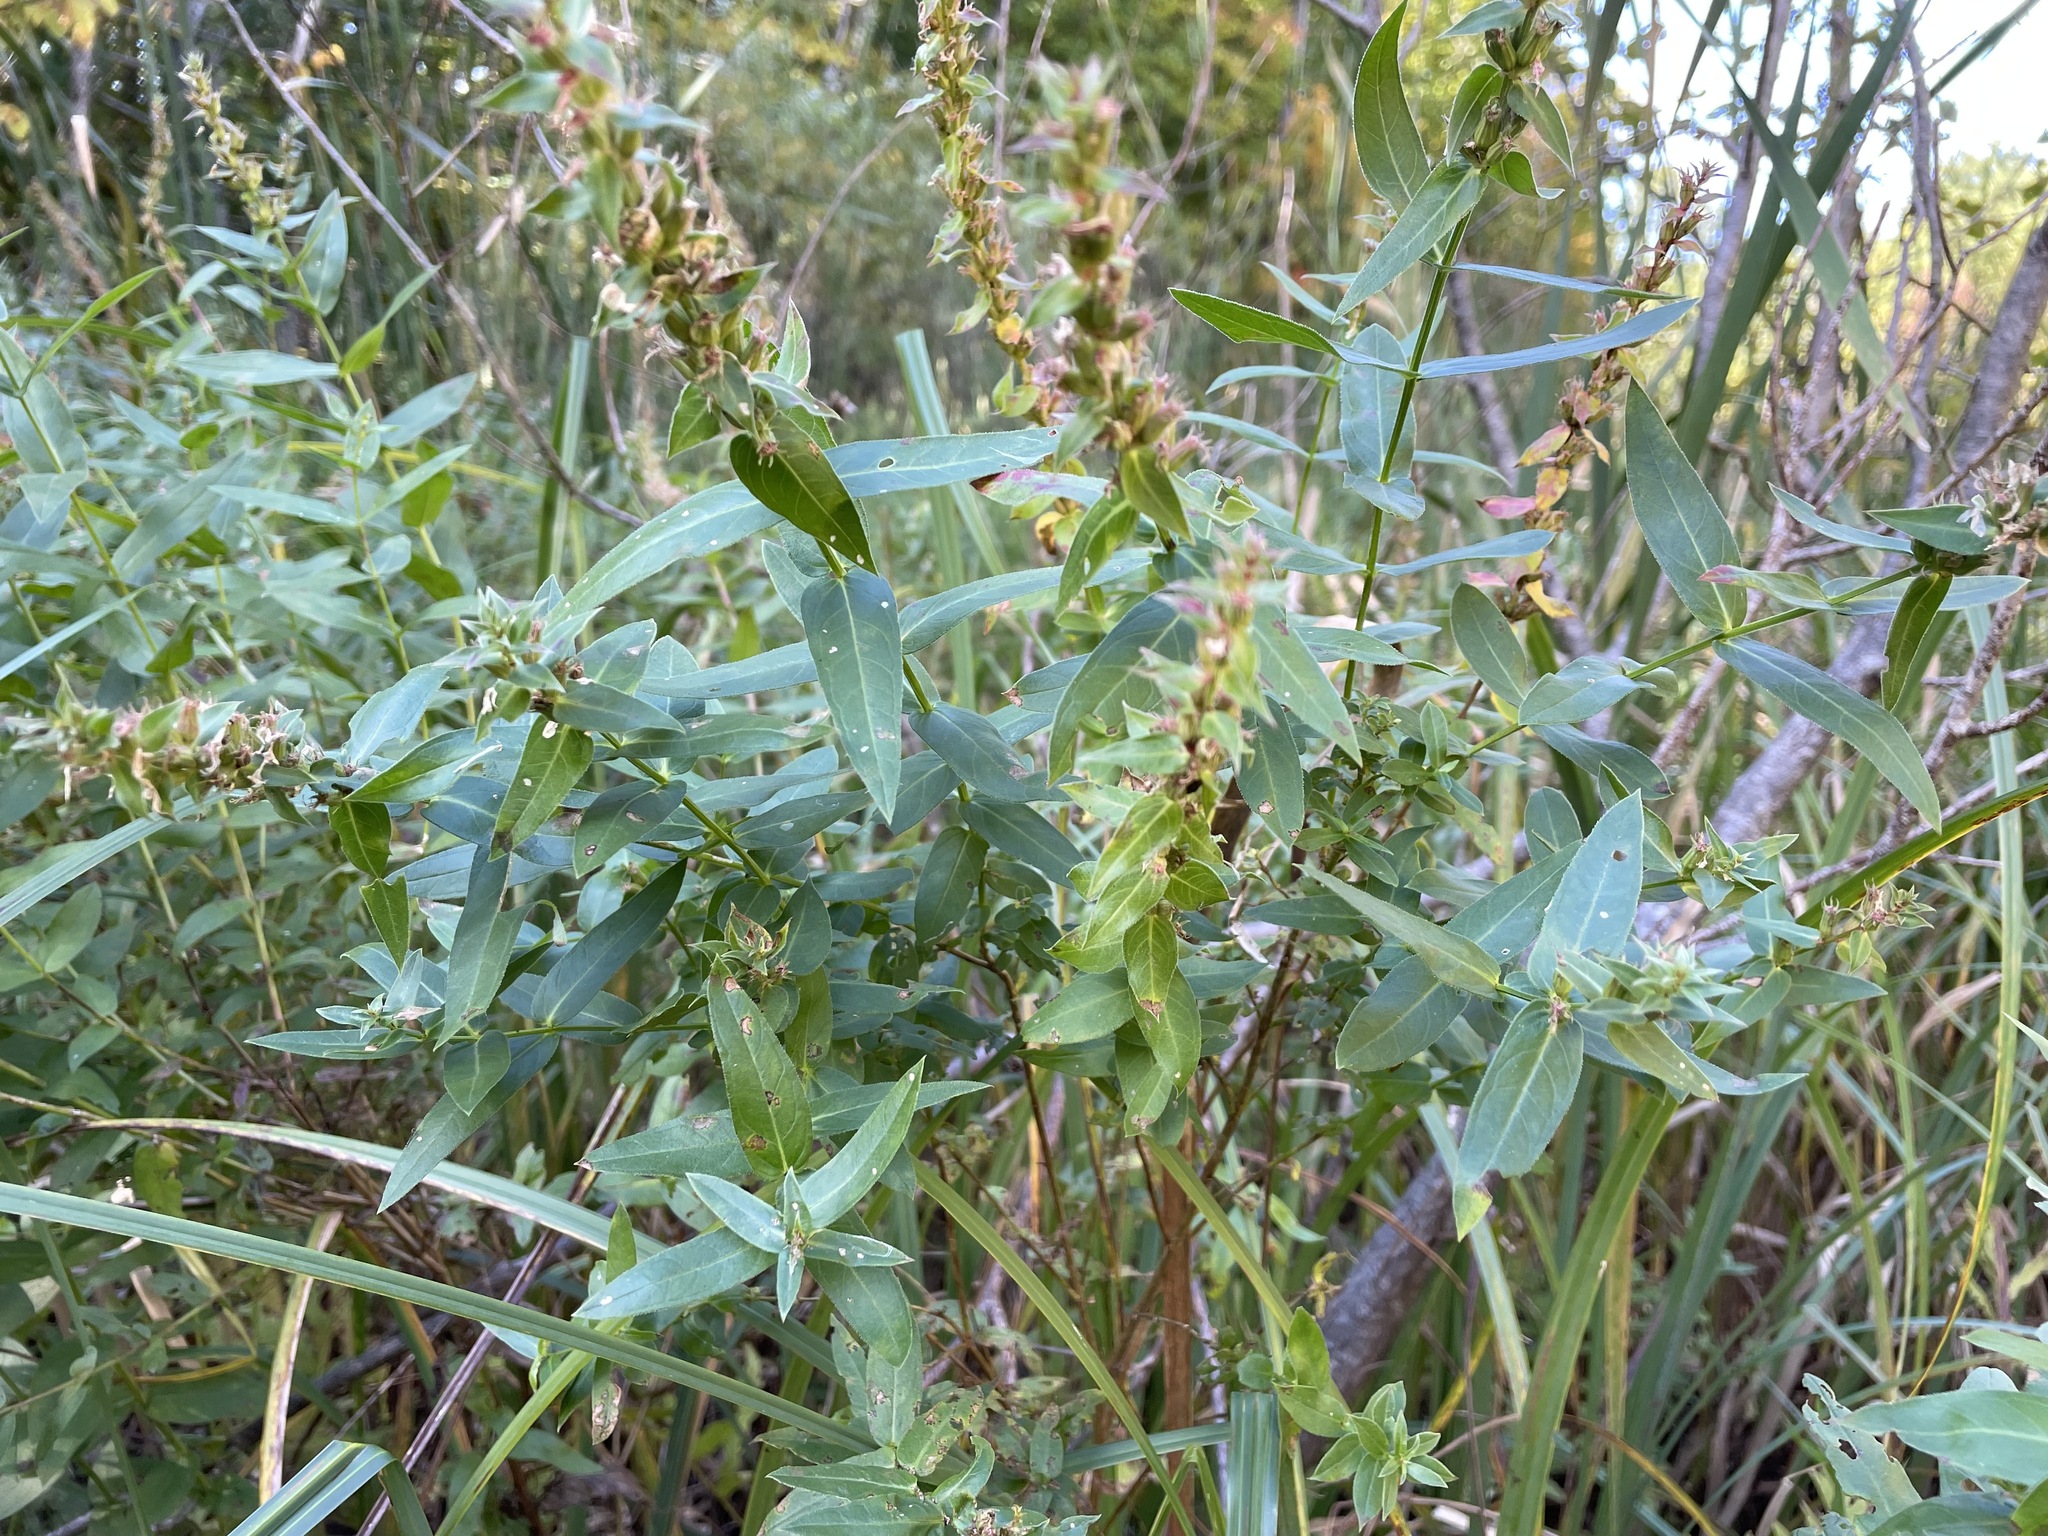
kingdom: Plantae
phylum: Tracheophyta
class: Magnoliopsida
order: Myrtales
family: Lythraceae
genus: Lythrum
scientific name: Lythrum salicaria
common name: Purple loosestrife
